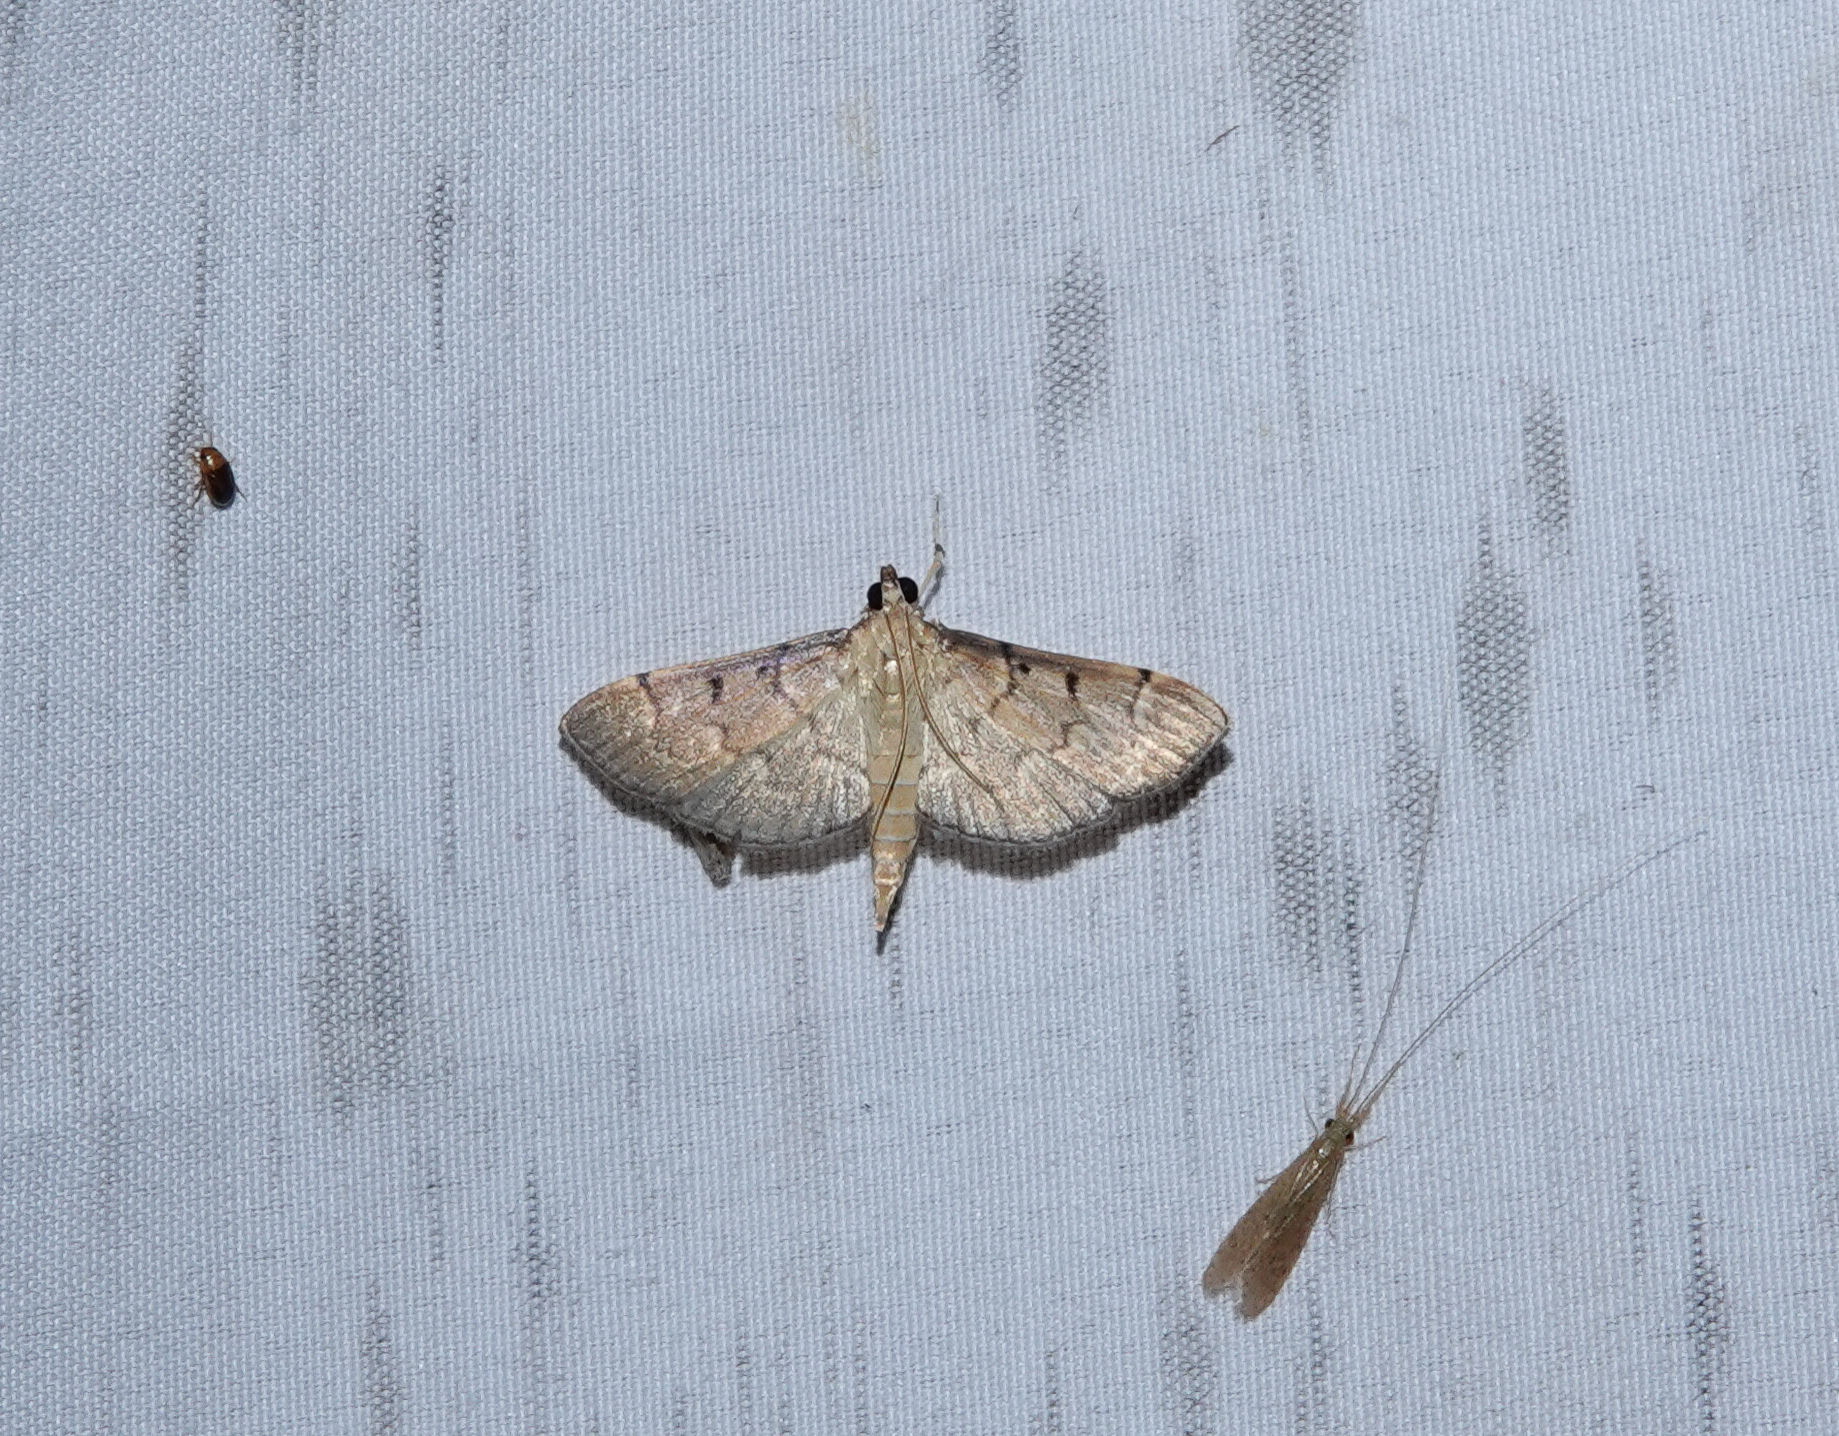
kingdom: Animalia
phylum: Arthropoda
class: Insecta
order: Lepidoptera
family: Crambidae
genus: Herpetogramma
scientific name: Herpetogramma rudis
